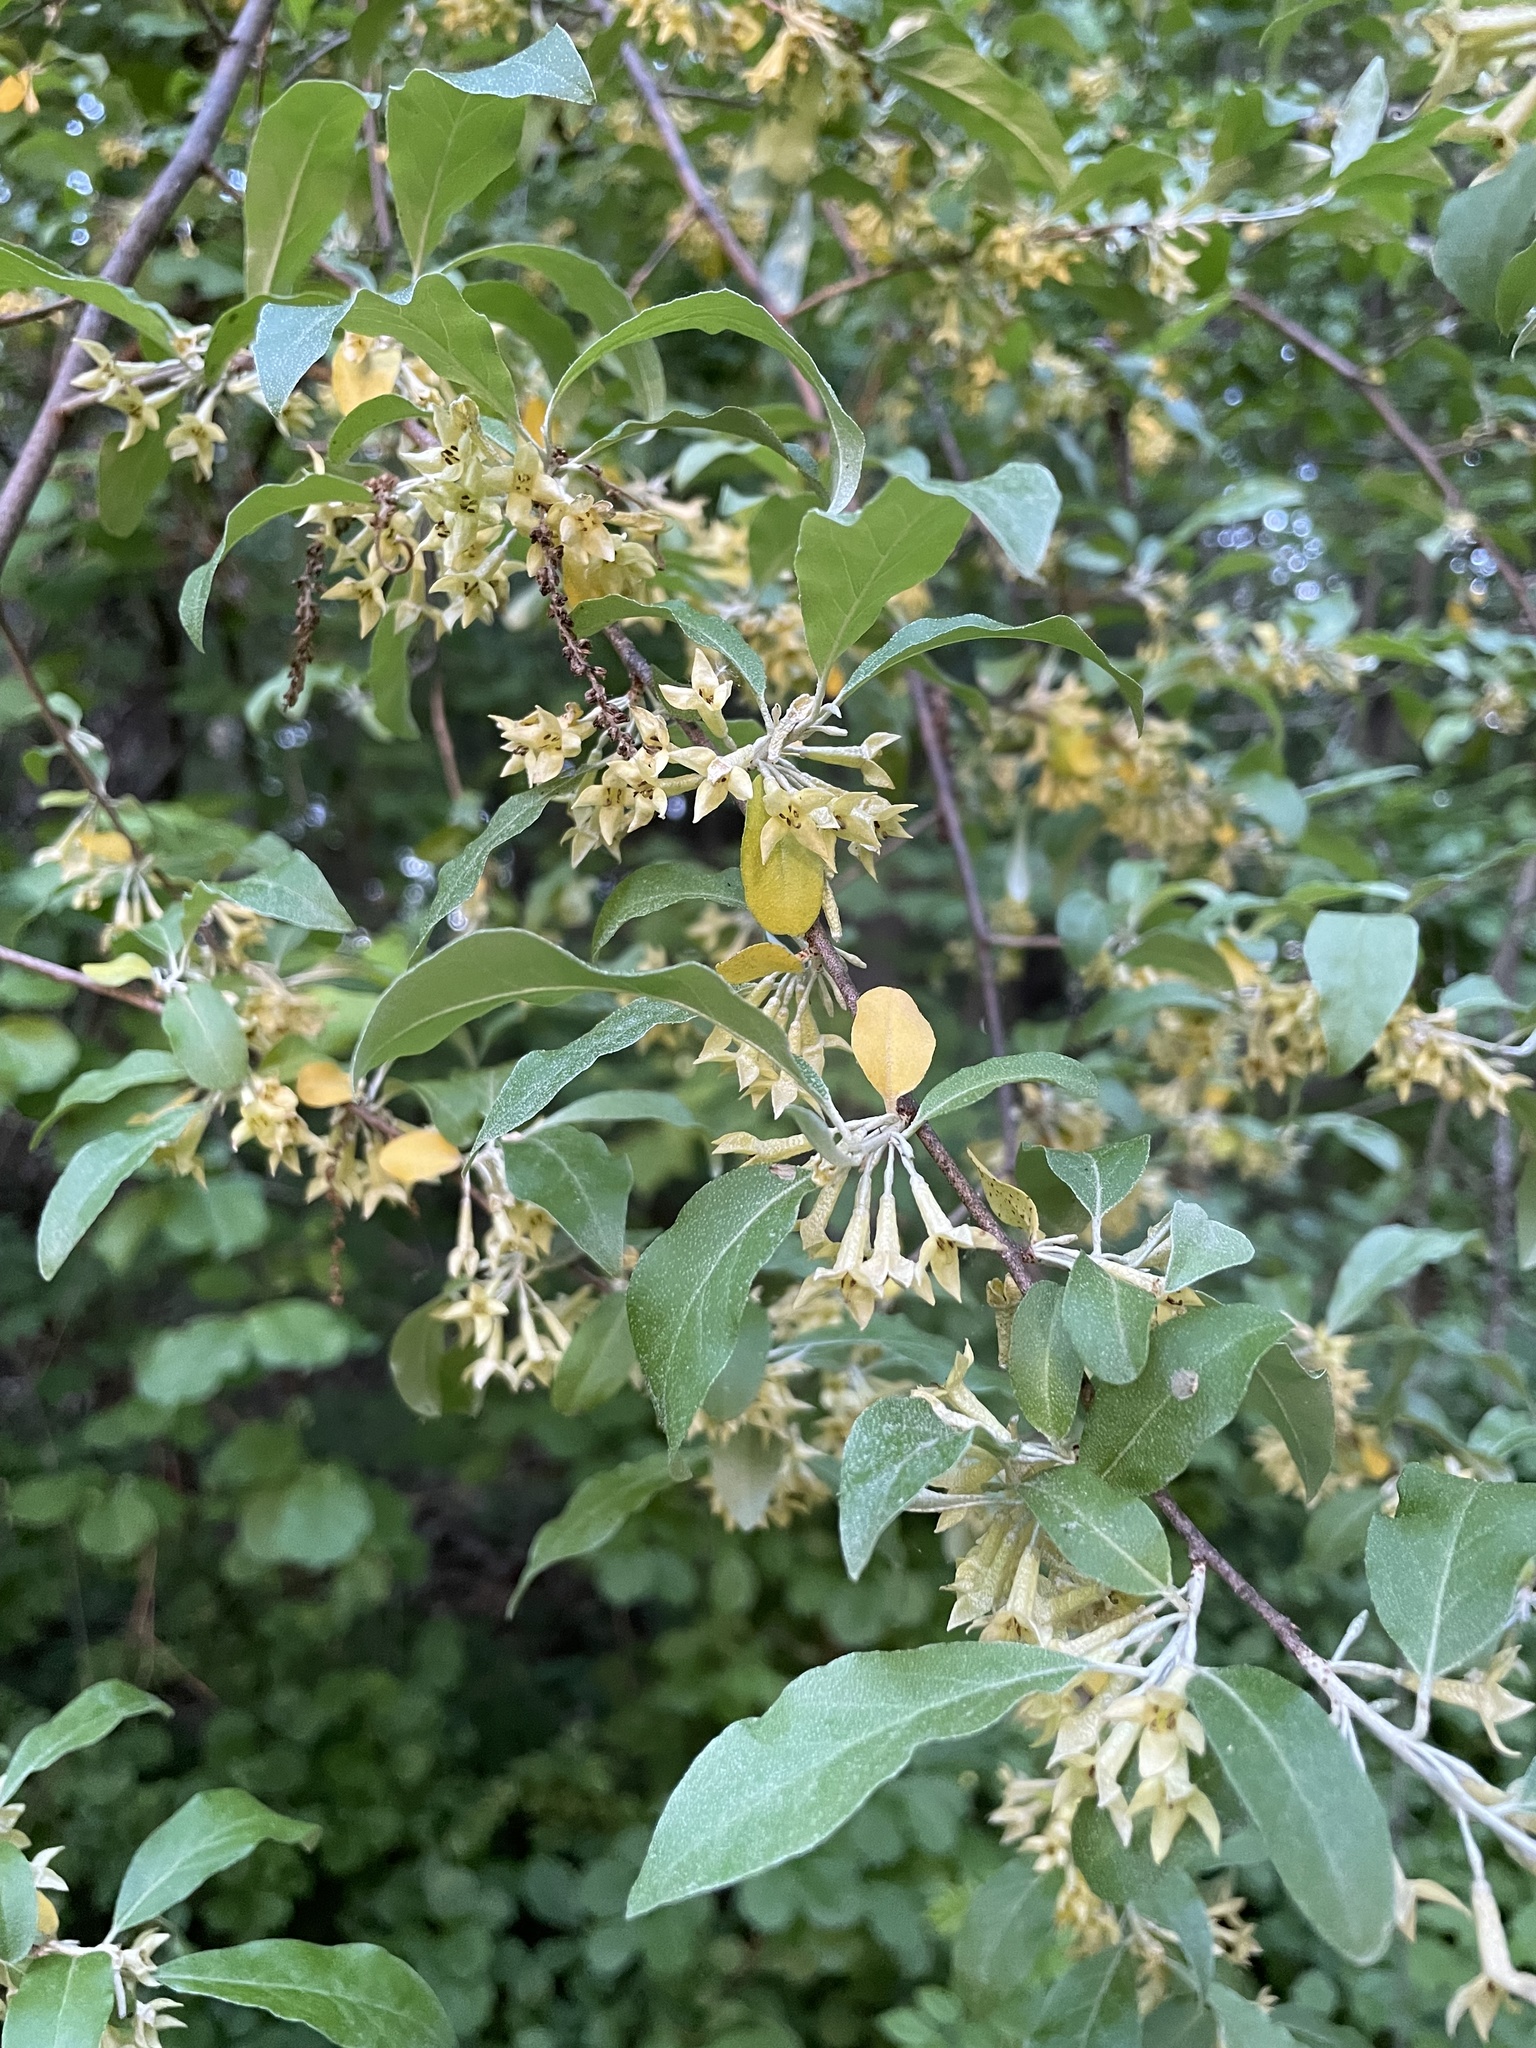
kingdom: Plantae
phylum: Tracheophyta
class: Magnoliopsida
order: Rosales
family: Elaeagnaceae
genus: Elaeagnus
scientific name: Elaeagnus umbellata
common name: Autumn olive
